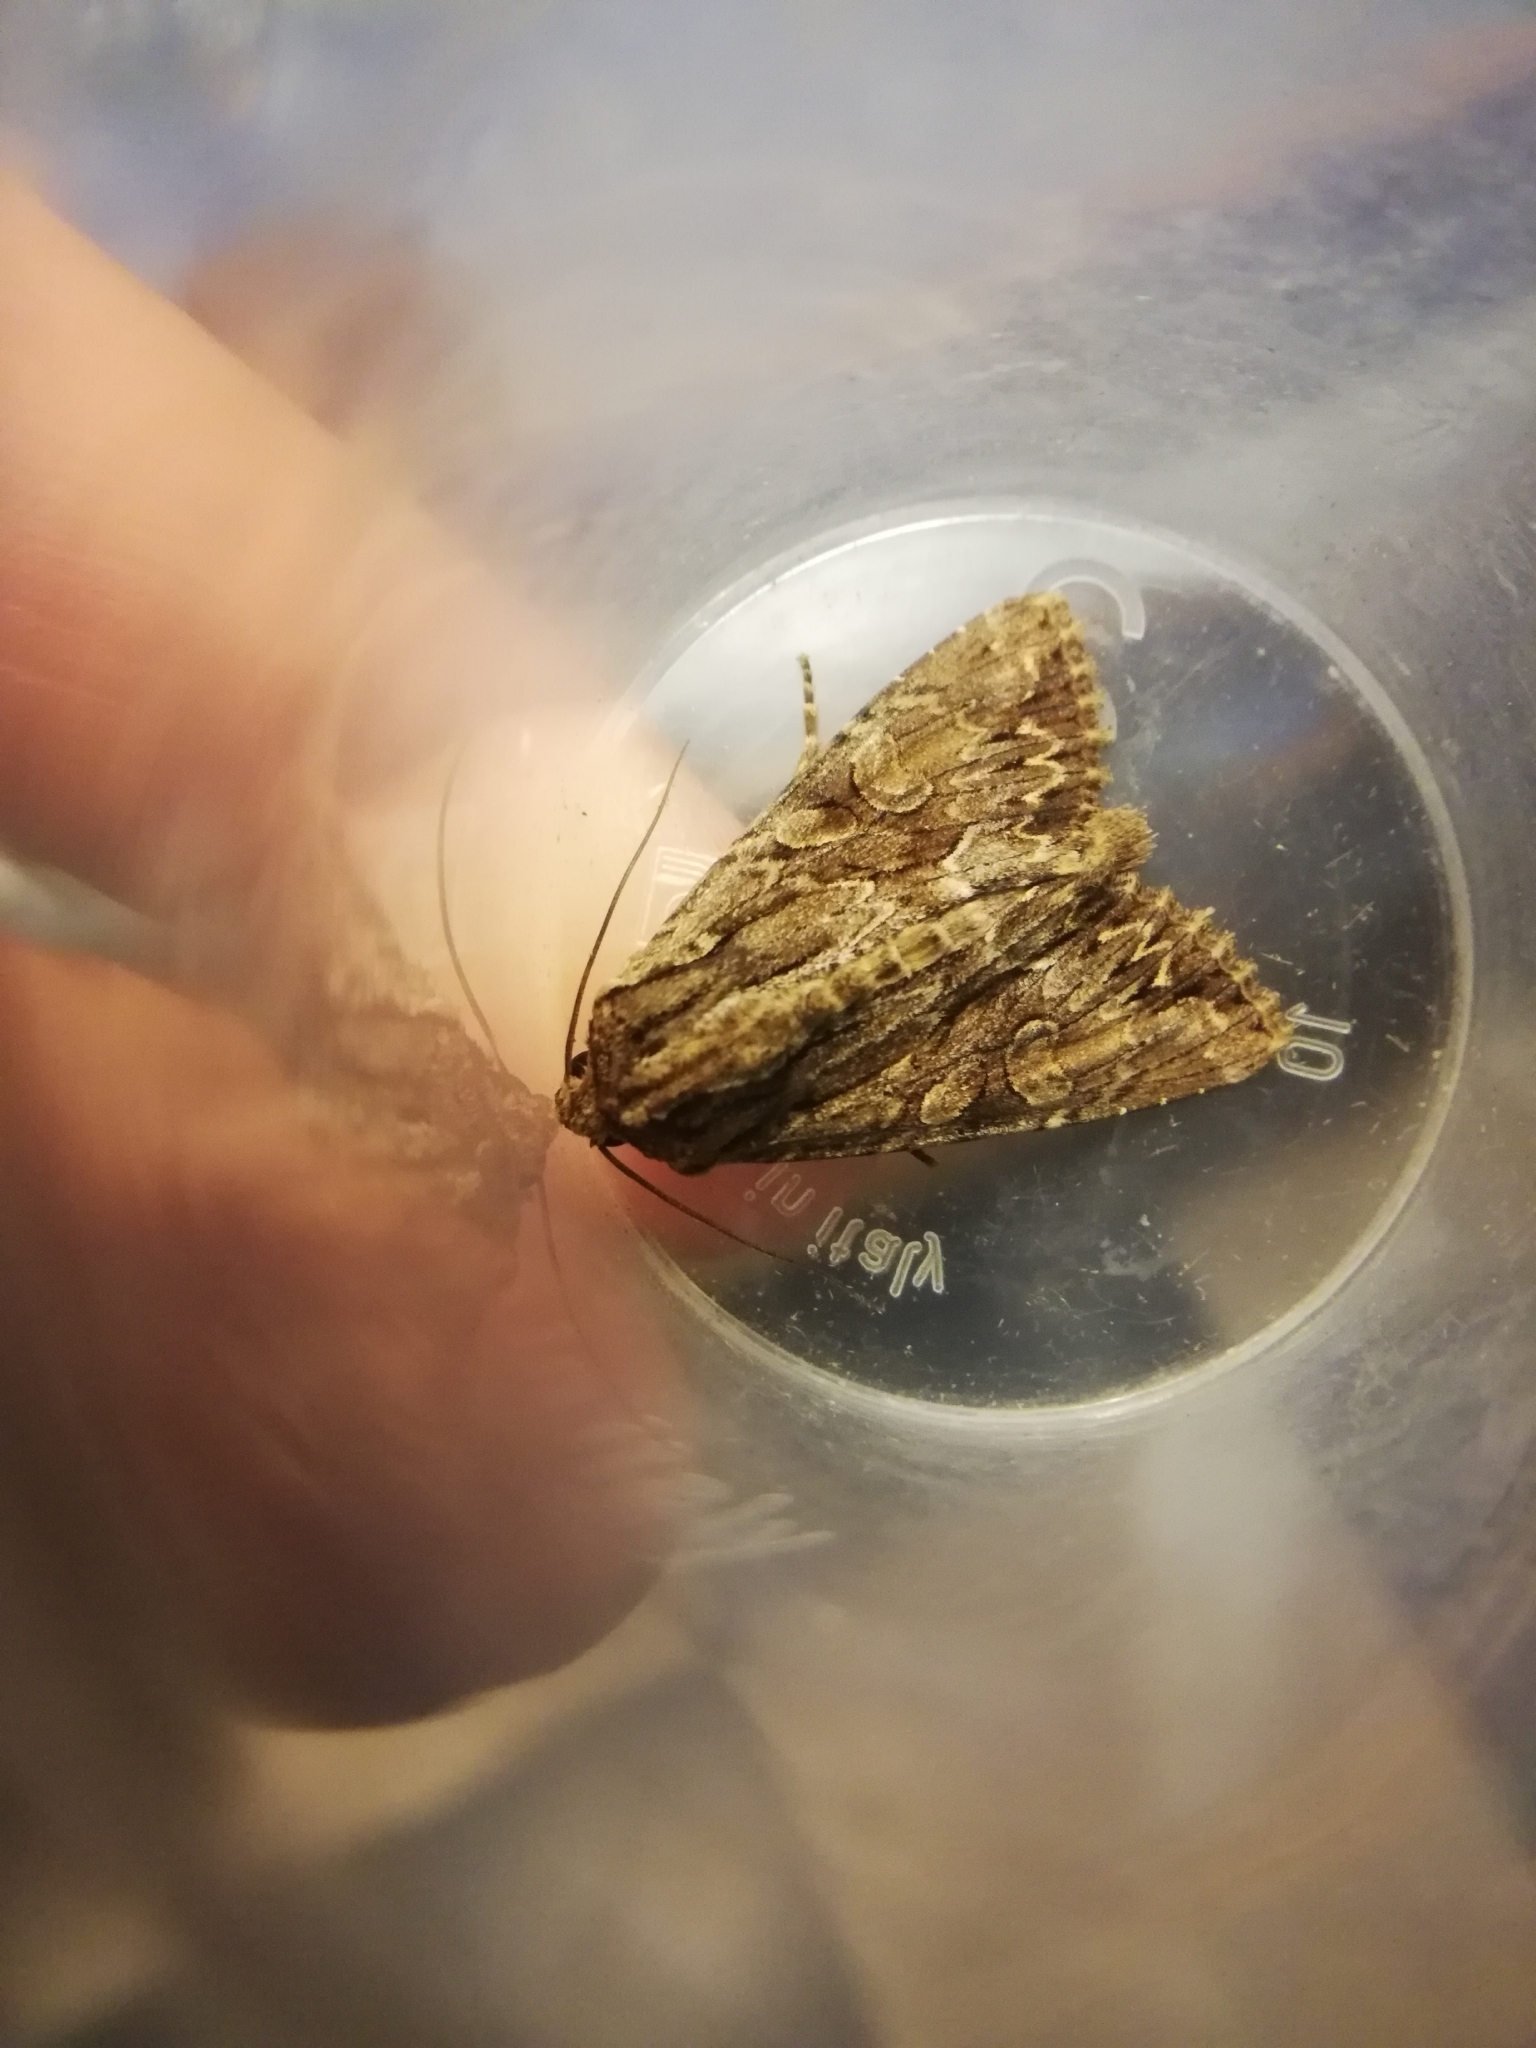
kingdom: Animalia
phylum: Arthropoda
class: Insecta
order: Lepidoptera
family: Noctuidae
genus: Apamea
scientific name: Apamea monoglypha
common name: Dark arches
